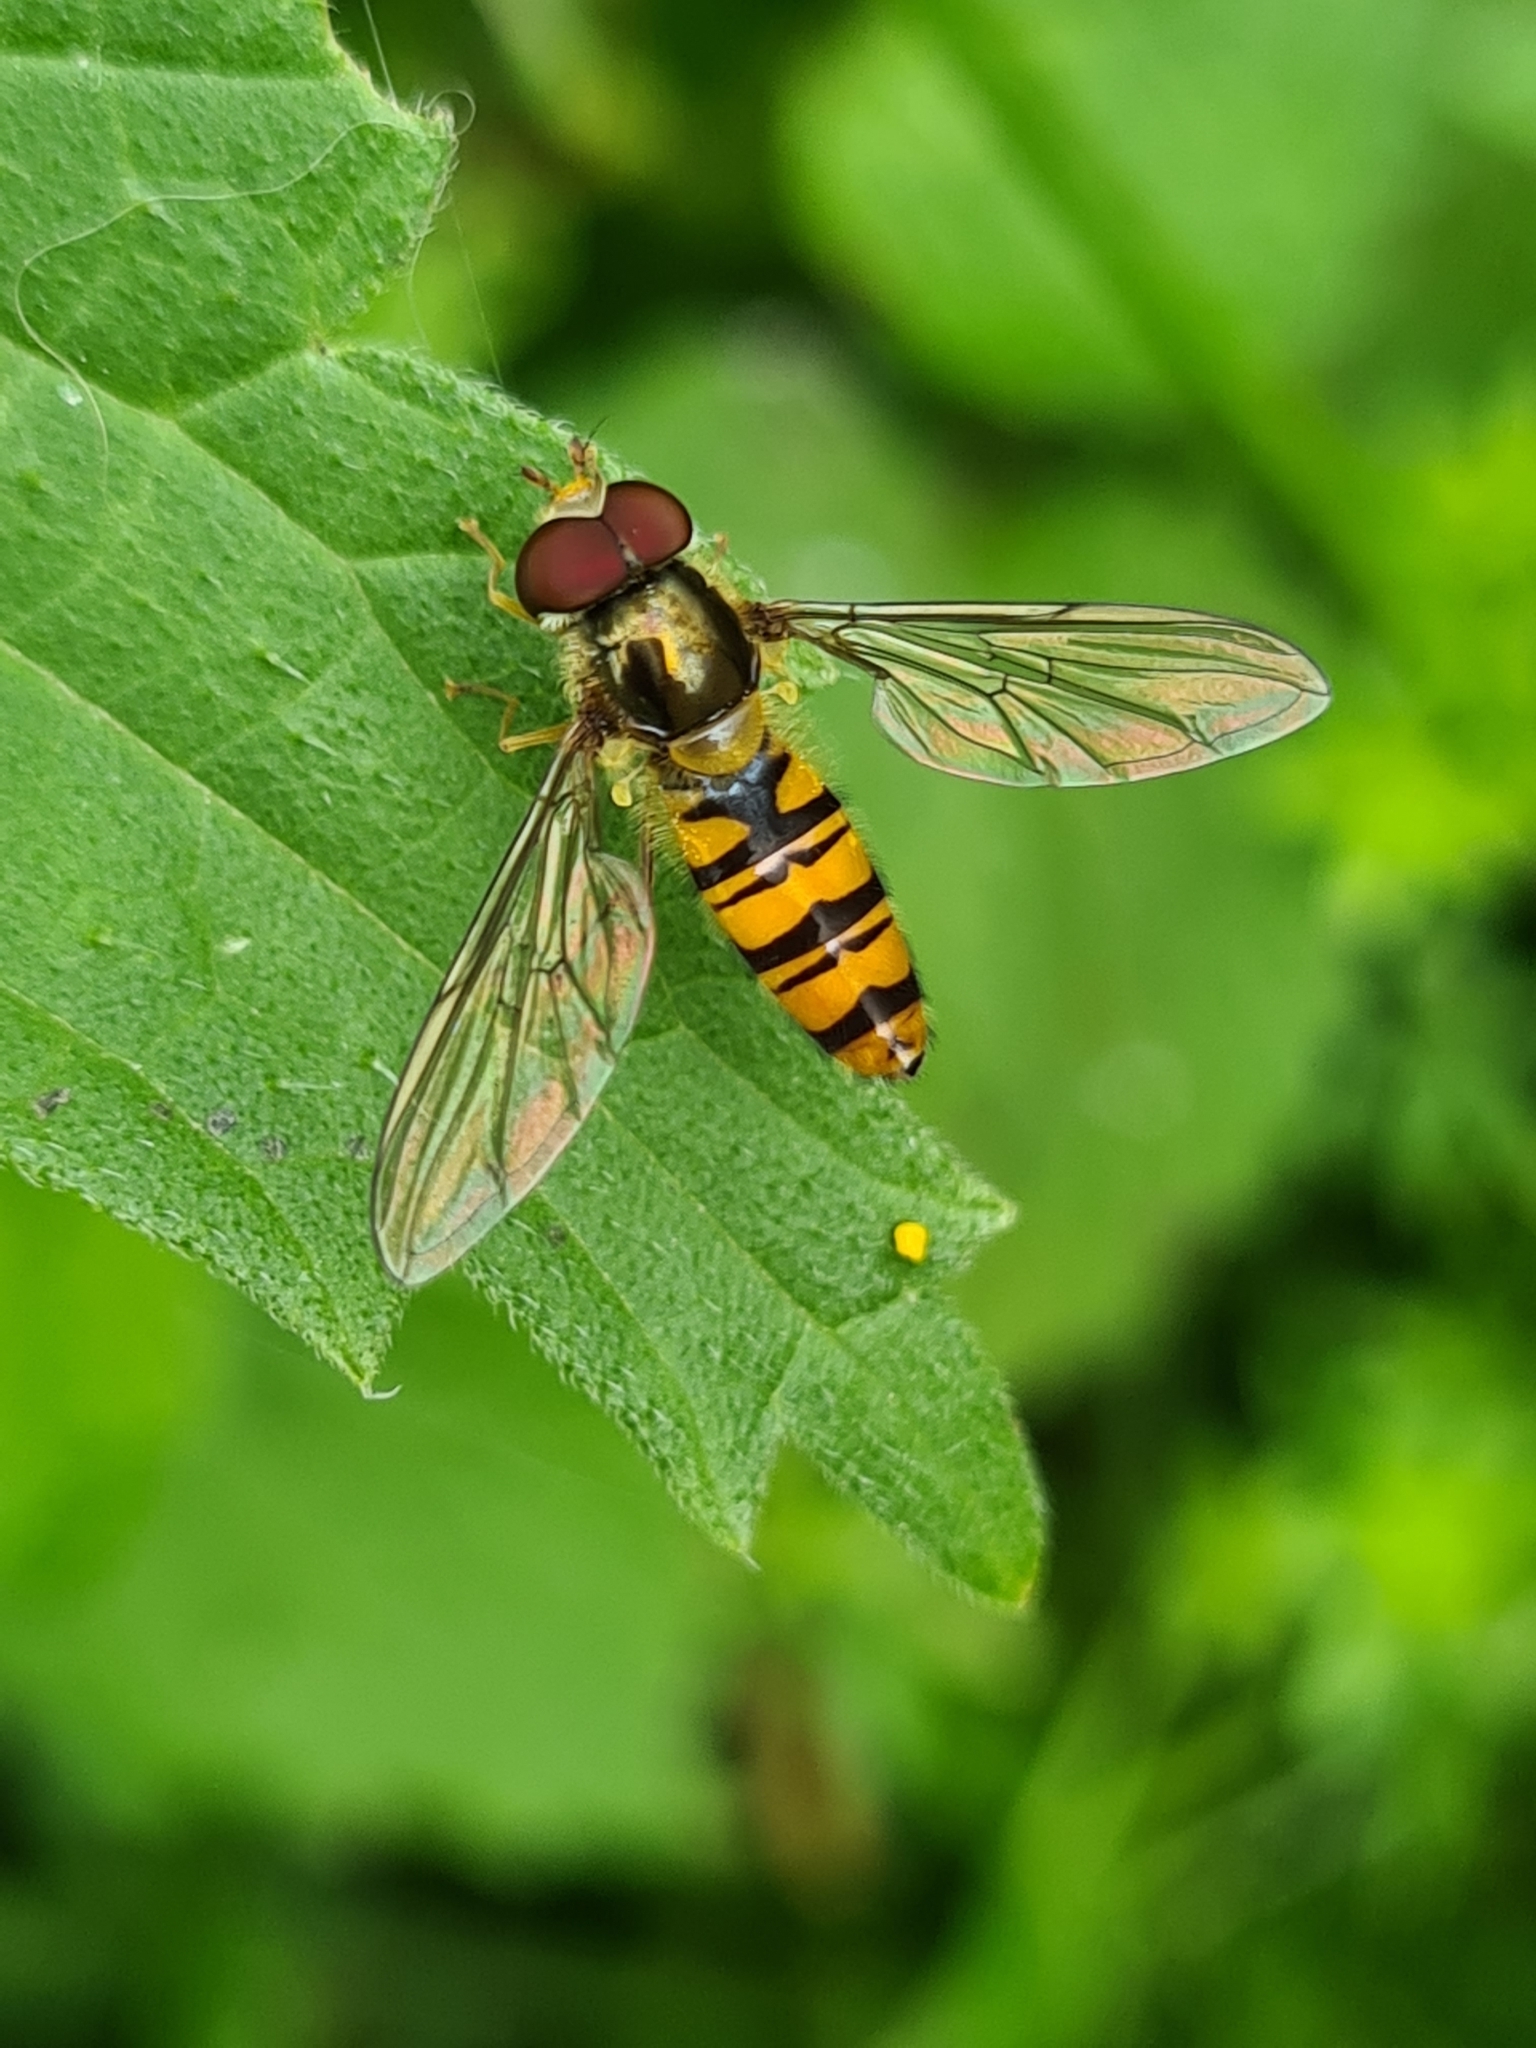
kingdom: Animalia
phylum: Arthropoda
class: Insecta
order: Diptera
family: Syrphidae
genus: Episyrphus
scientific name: Episyrphus balteatus
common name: Marmalade hoverfly
